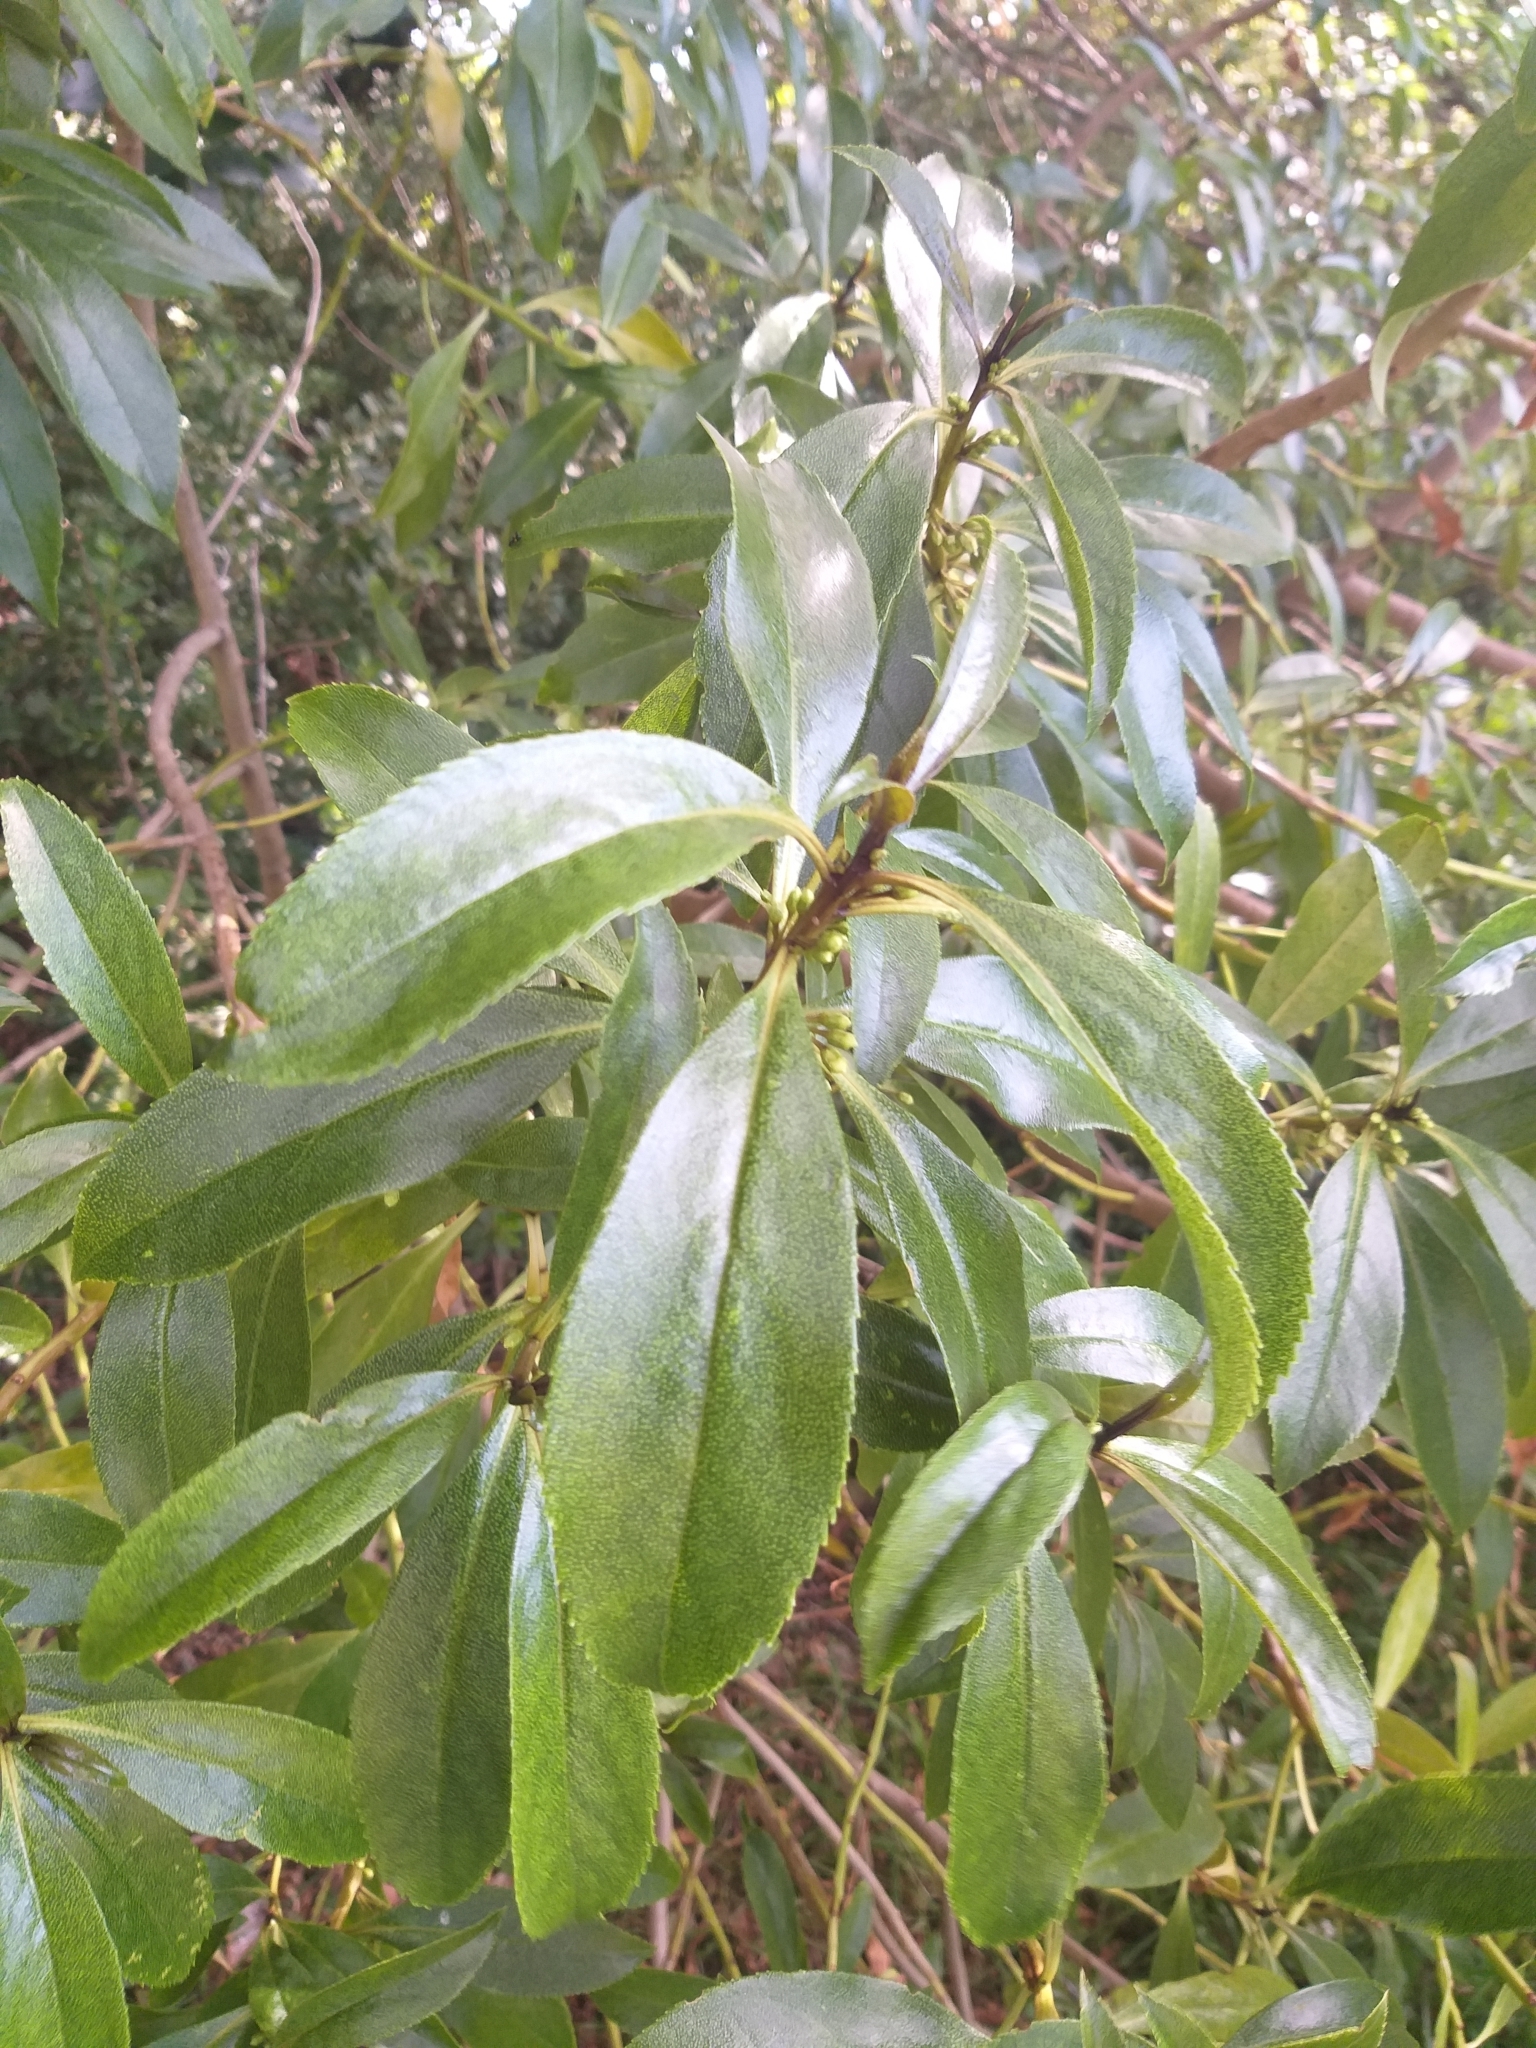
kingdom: Plantae
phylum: Tracheophyta
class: Magnoliopsida
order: Lamiales
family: Scrophulariaceae
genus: Myoporum
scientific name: Myoporum laetum
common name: Ngaio tree
